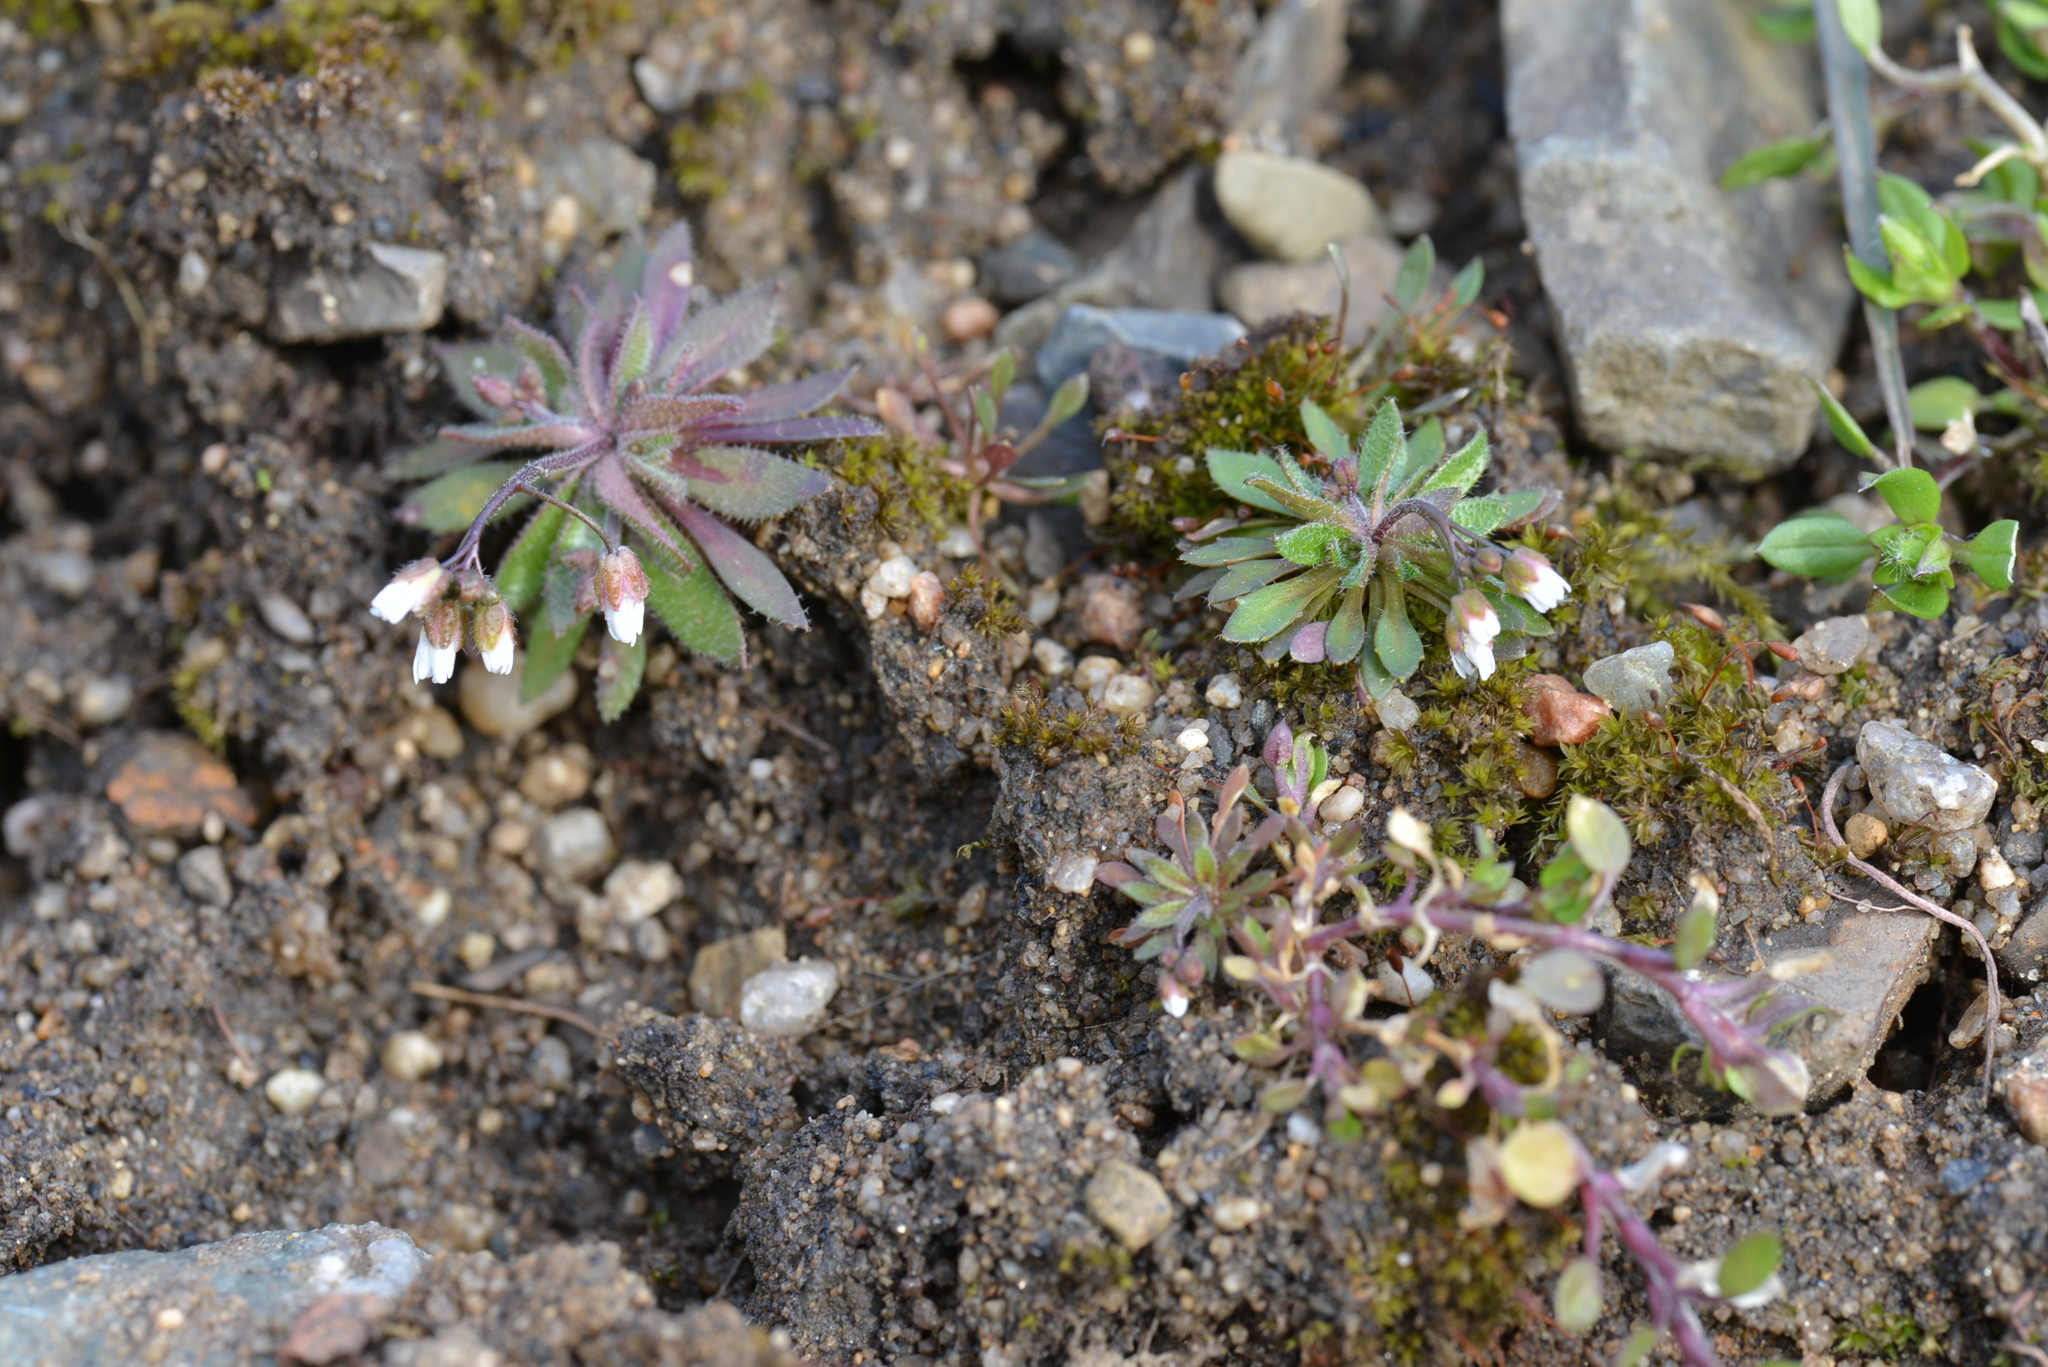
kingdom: Plantae
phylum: Tracheophyta
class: Magnoliopsida
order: Brassicales
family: Brassicaceae
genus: Draba
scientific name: Draba verna
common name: Spring draba
